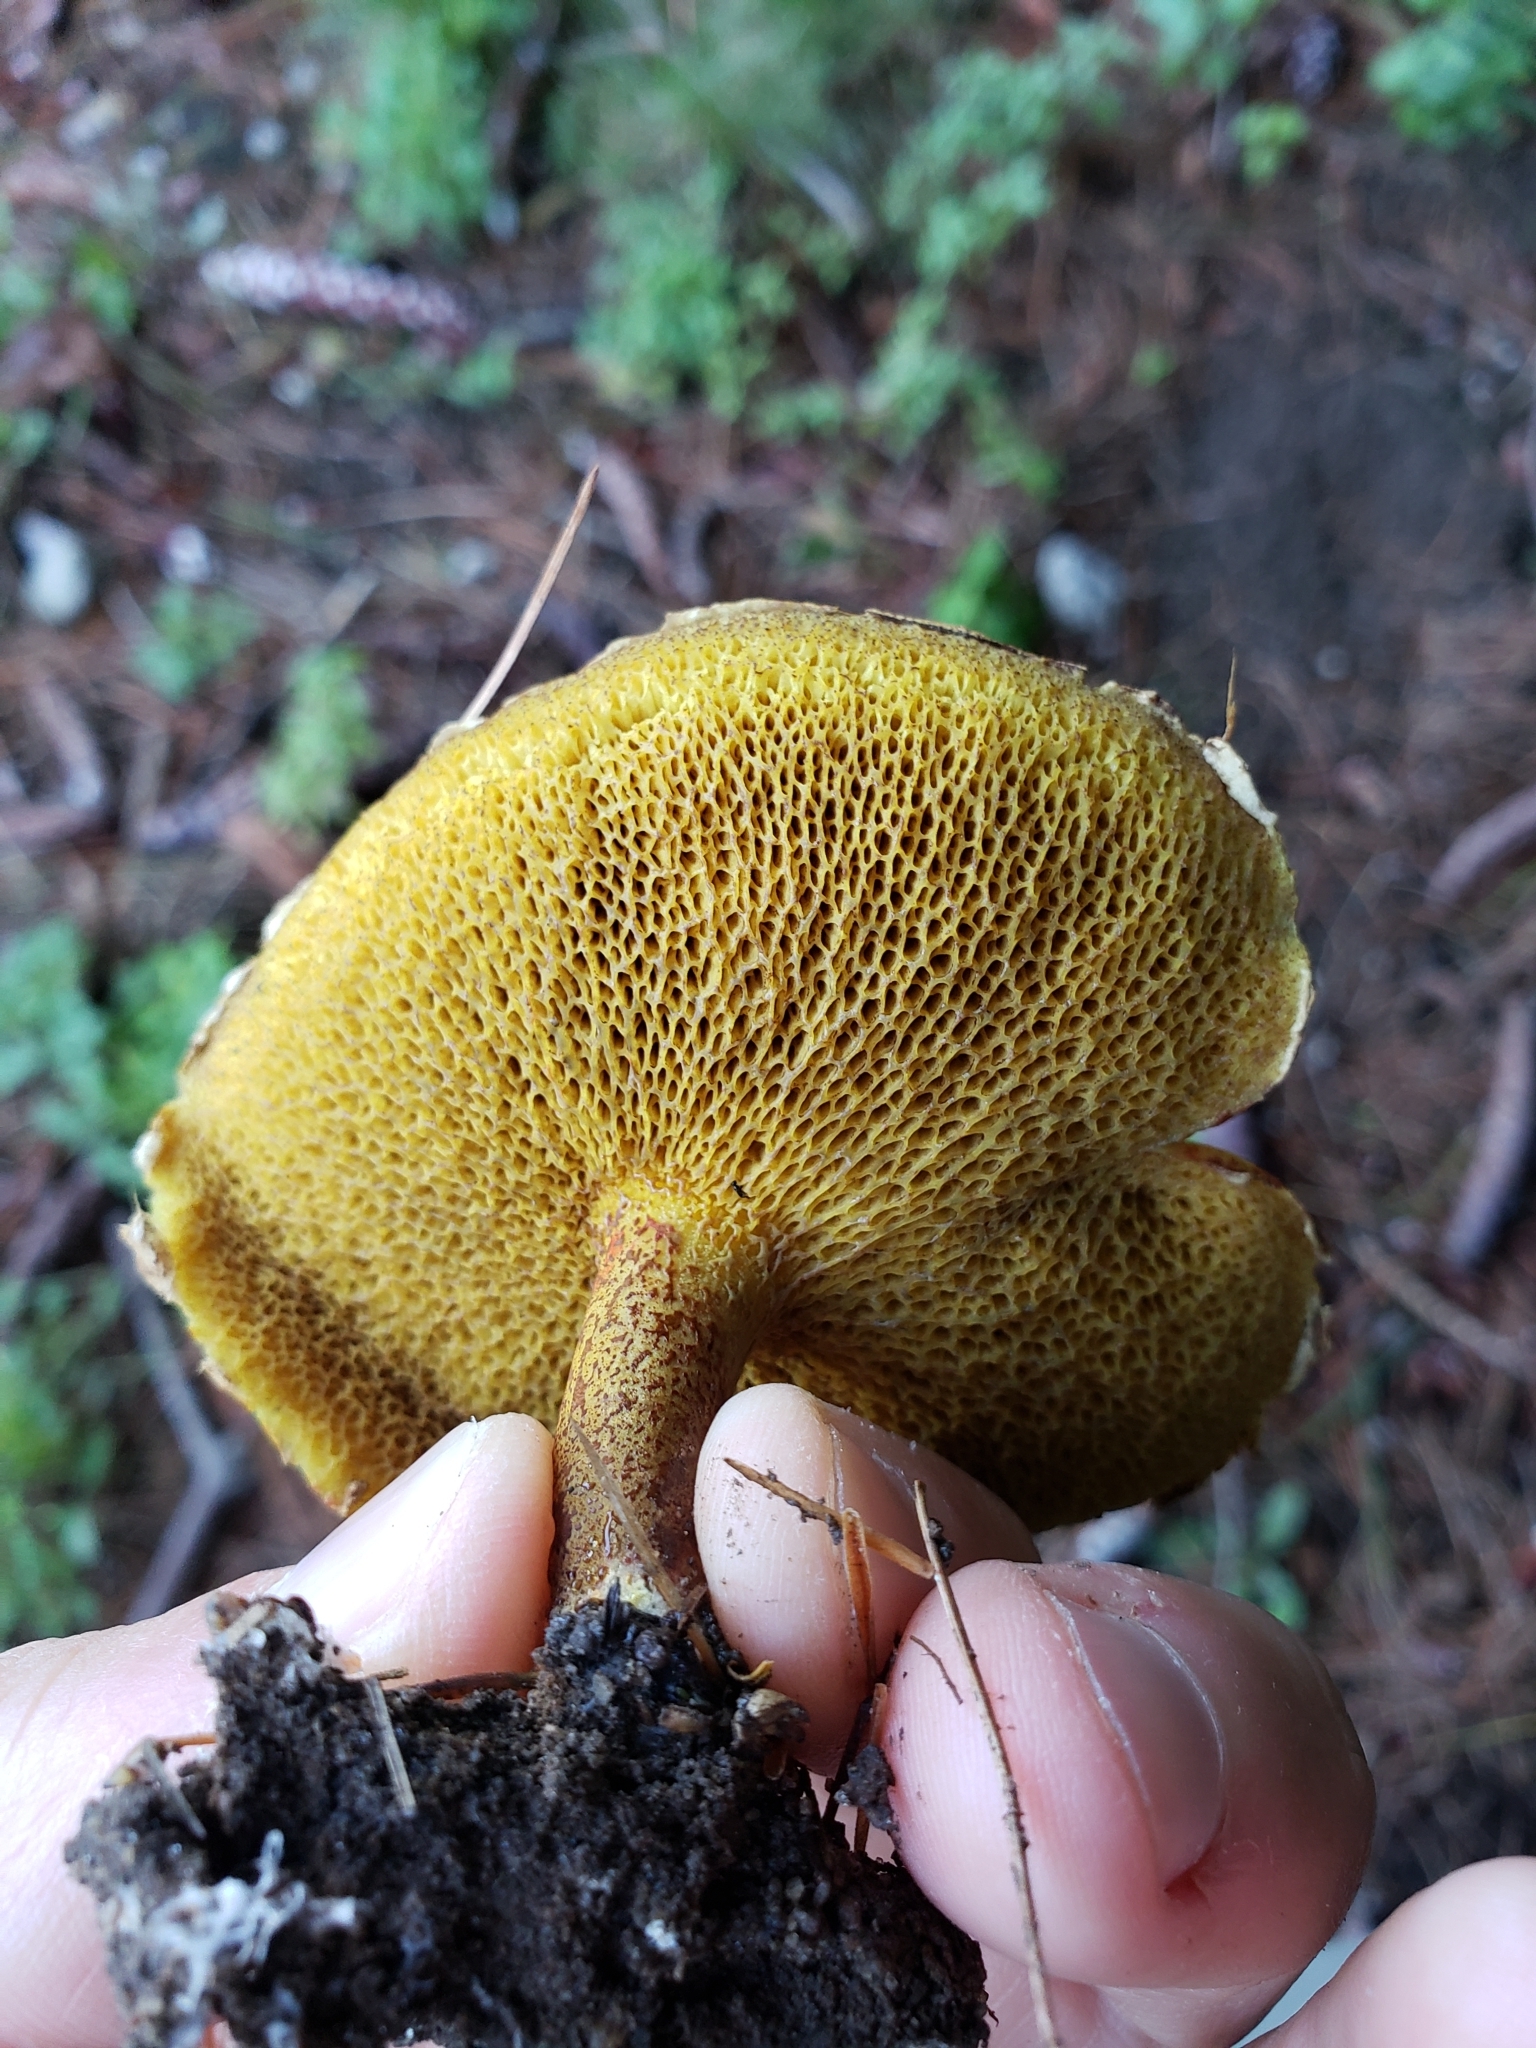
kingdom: Fungi
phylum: Basidiomycota
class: Agaricomycetes
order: Boletales
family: Suillaceae
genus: Suillus
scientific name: Suillus americanus
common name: Chicken fat mushroom
